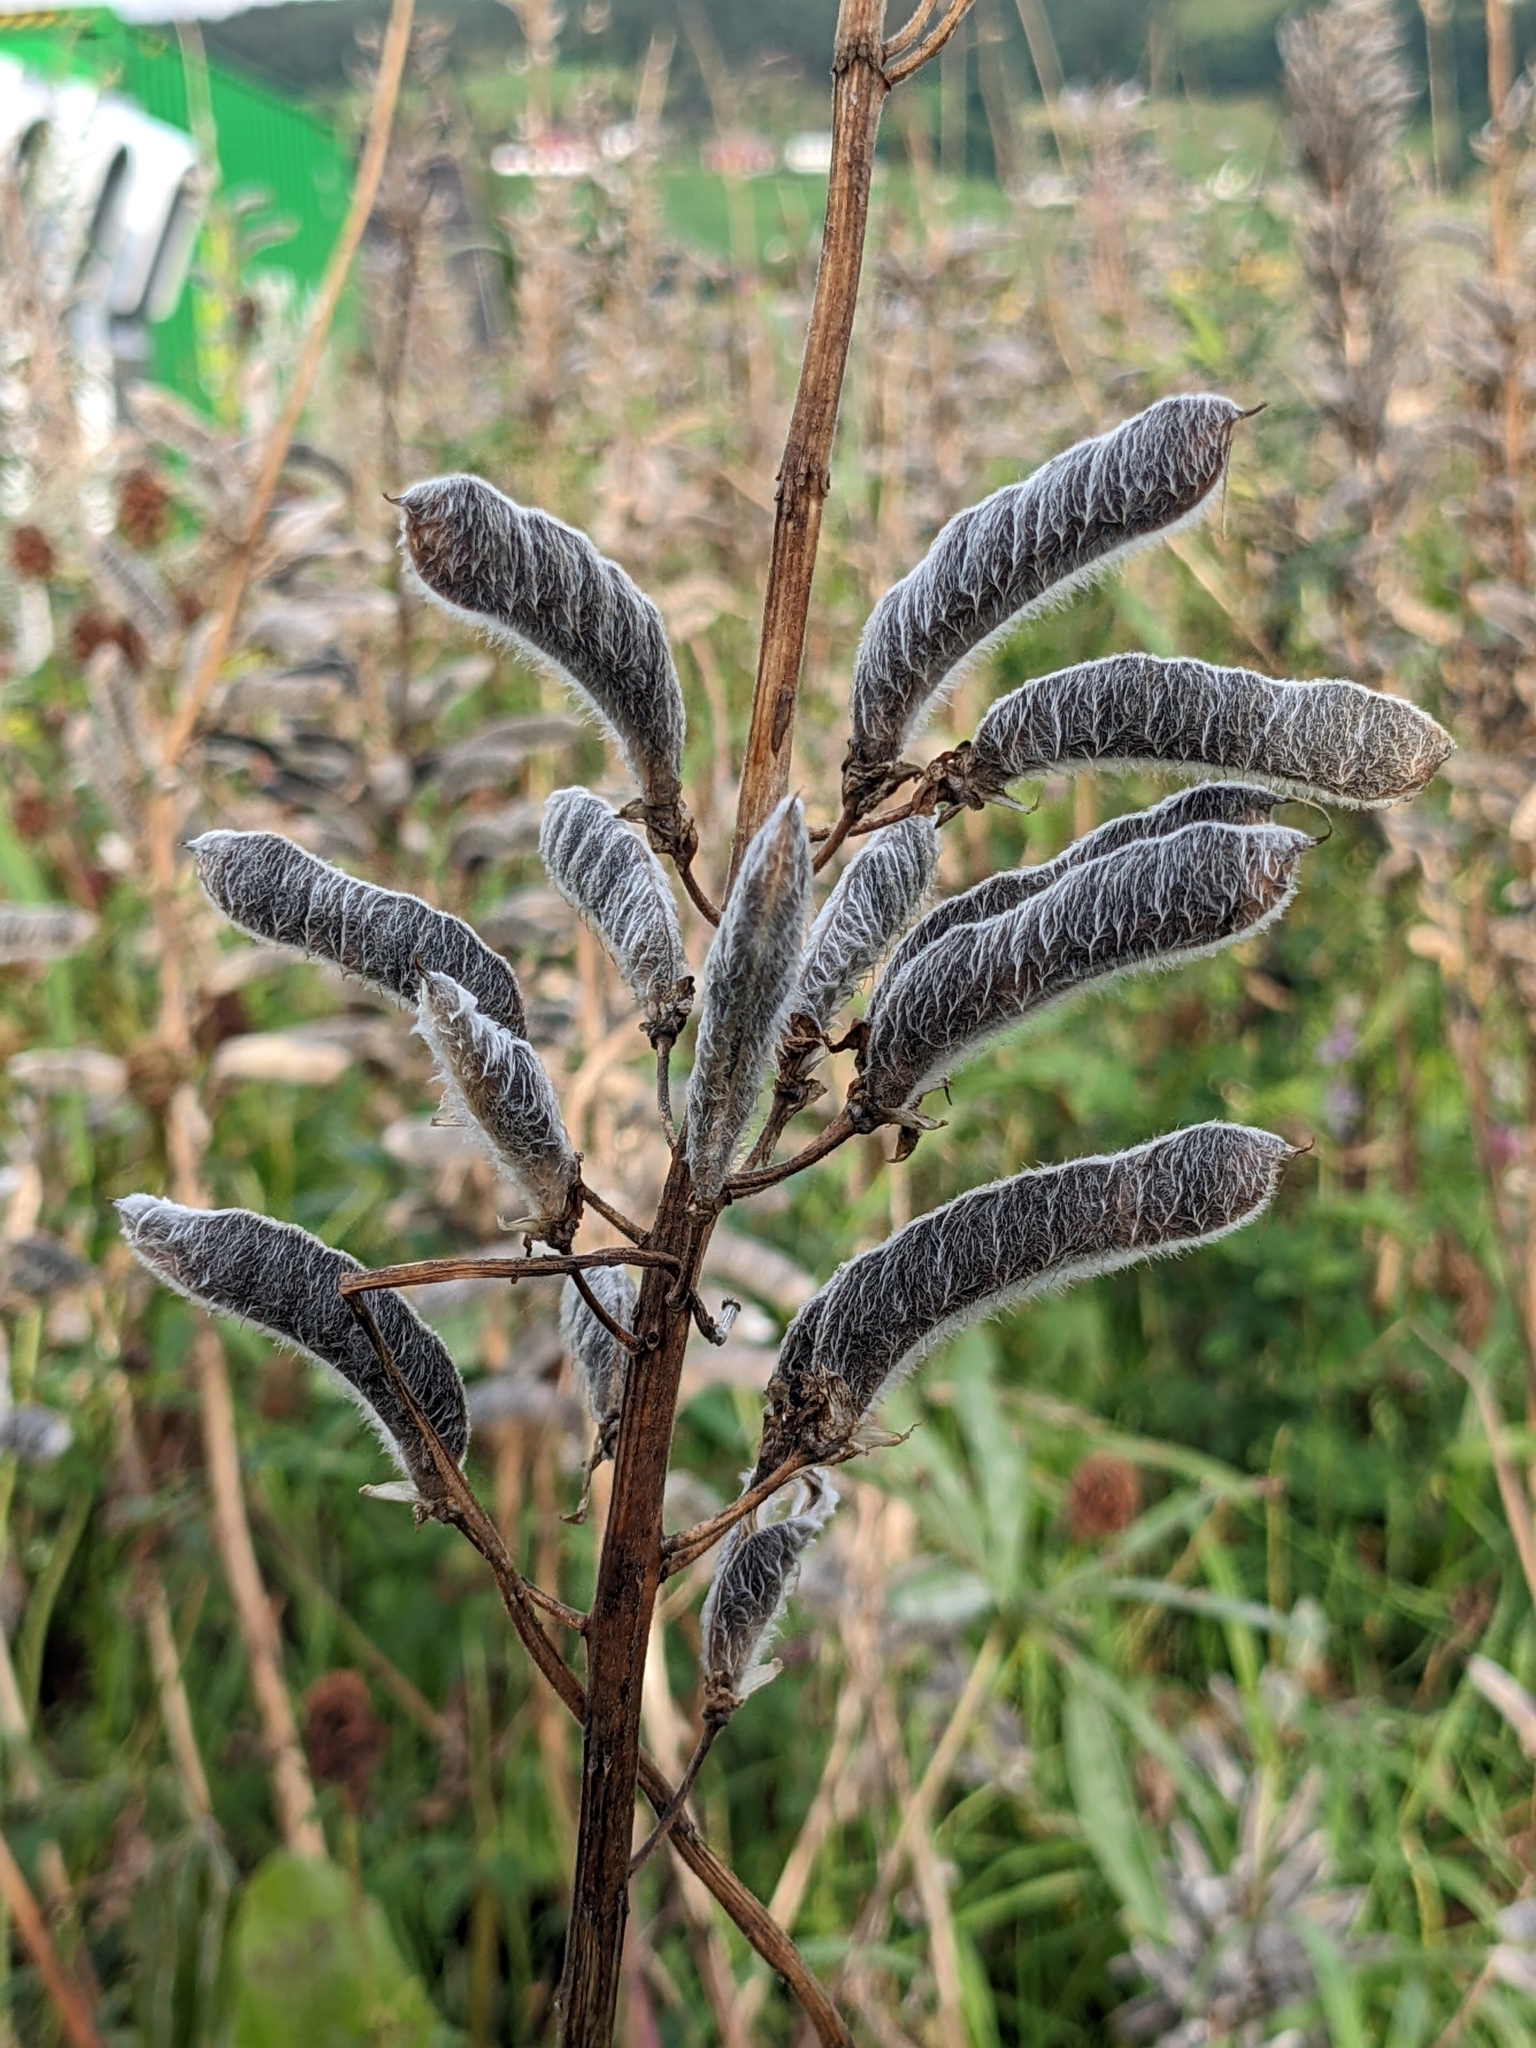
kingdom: Plantae
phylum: Tracheophyta
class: Magnoliopsida
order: Fabales
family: Fabaceae
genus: Lupinus
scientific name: Lupinus polyphyllus
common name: Garden lupin
